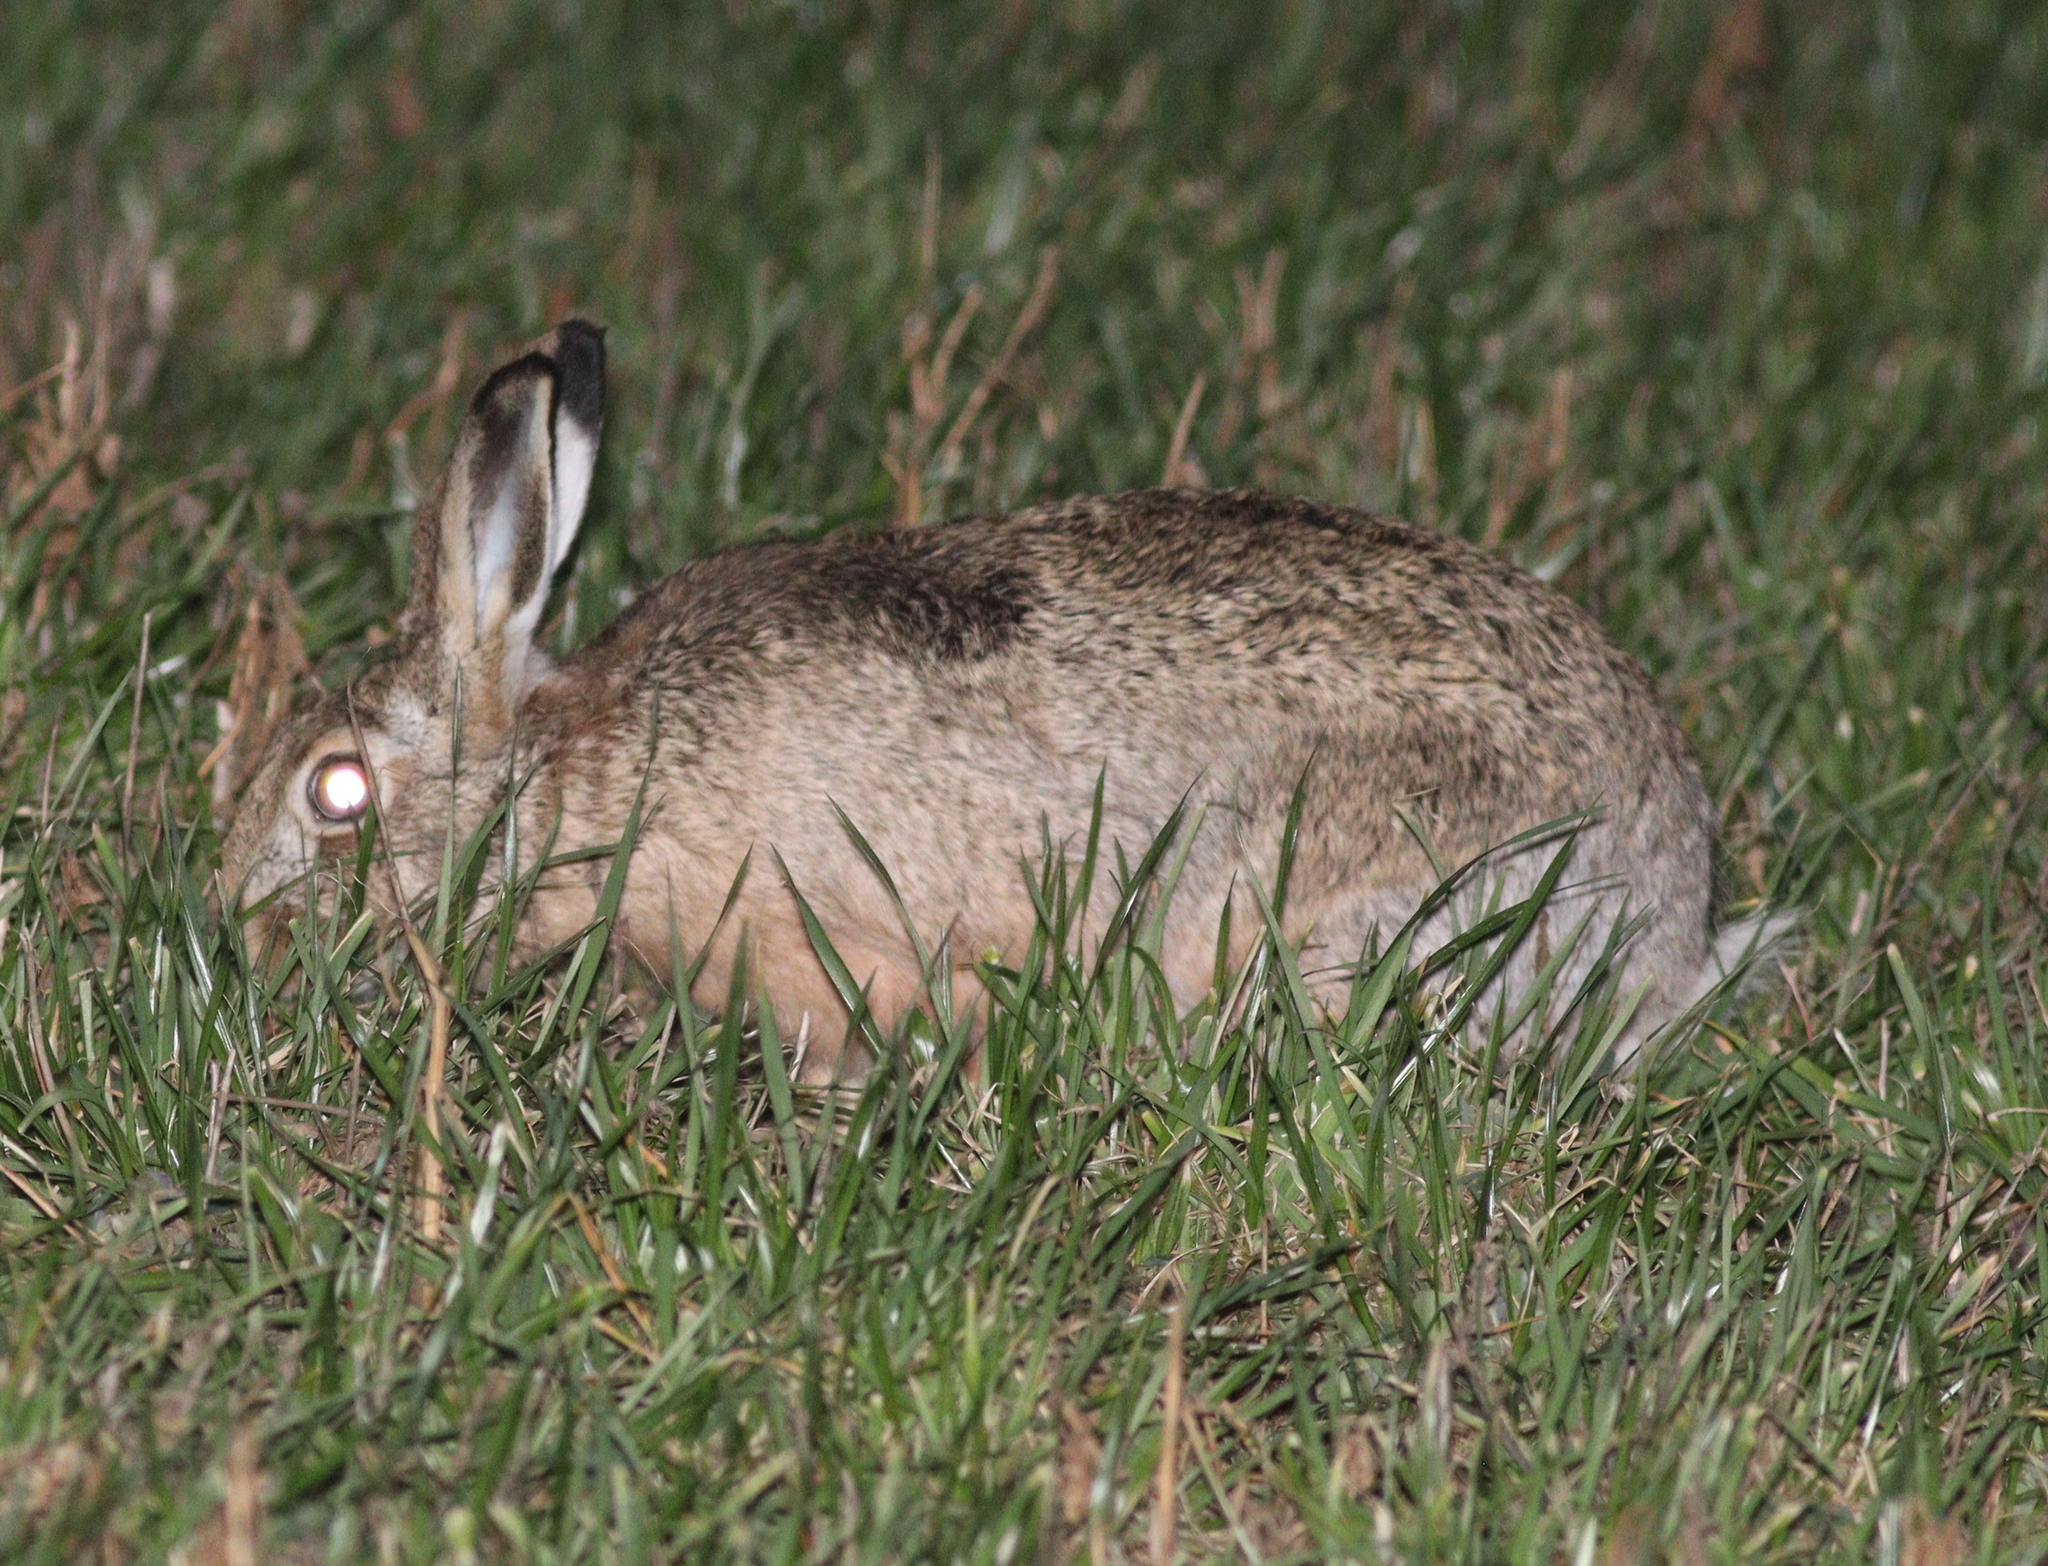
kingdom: Animalia
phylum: Chordata
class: Mammalia
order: Lagomorpha
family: Leporidae
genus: Lepus
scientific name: Lepus europaeus
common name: European hare
